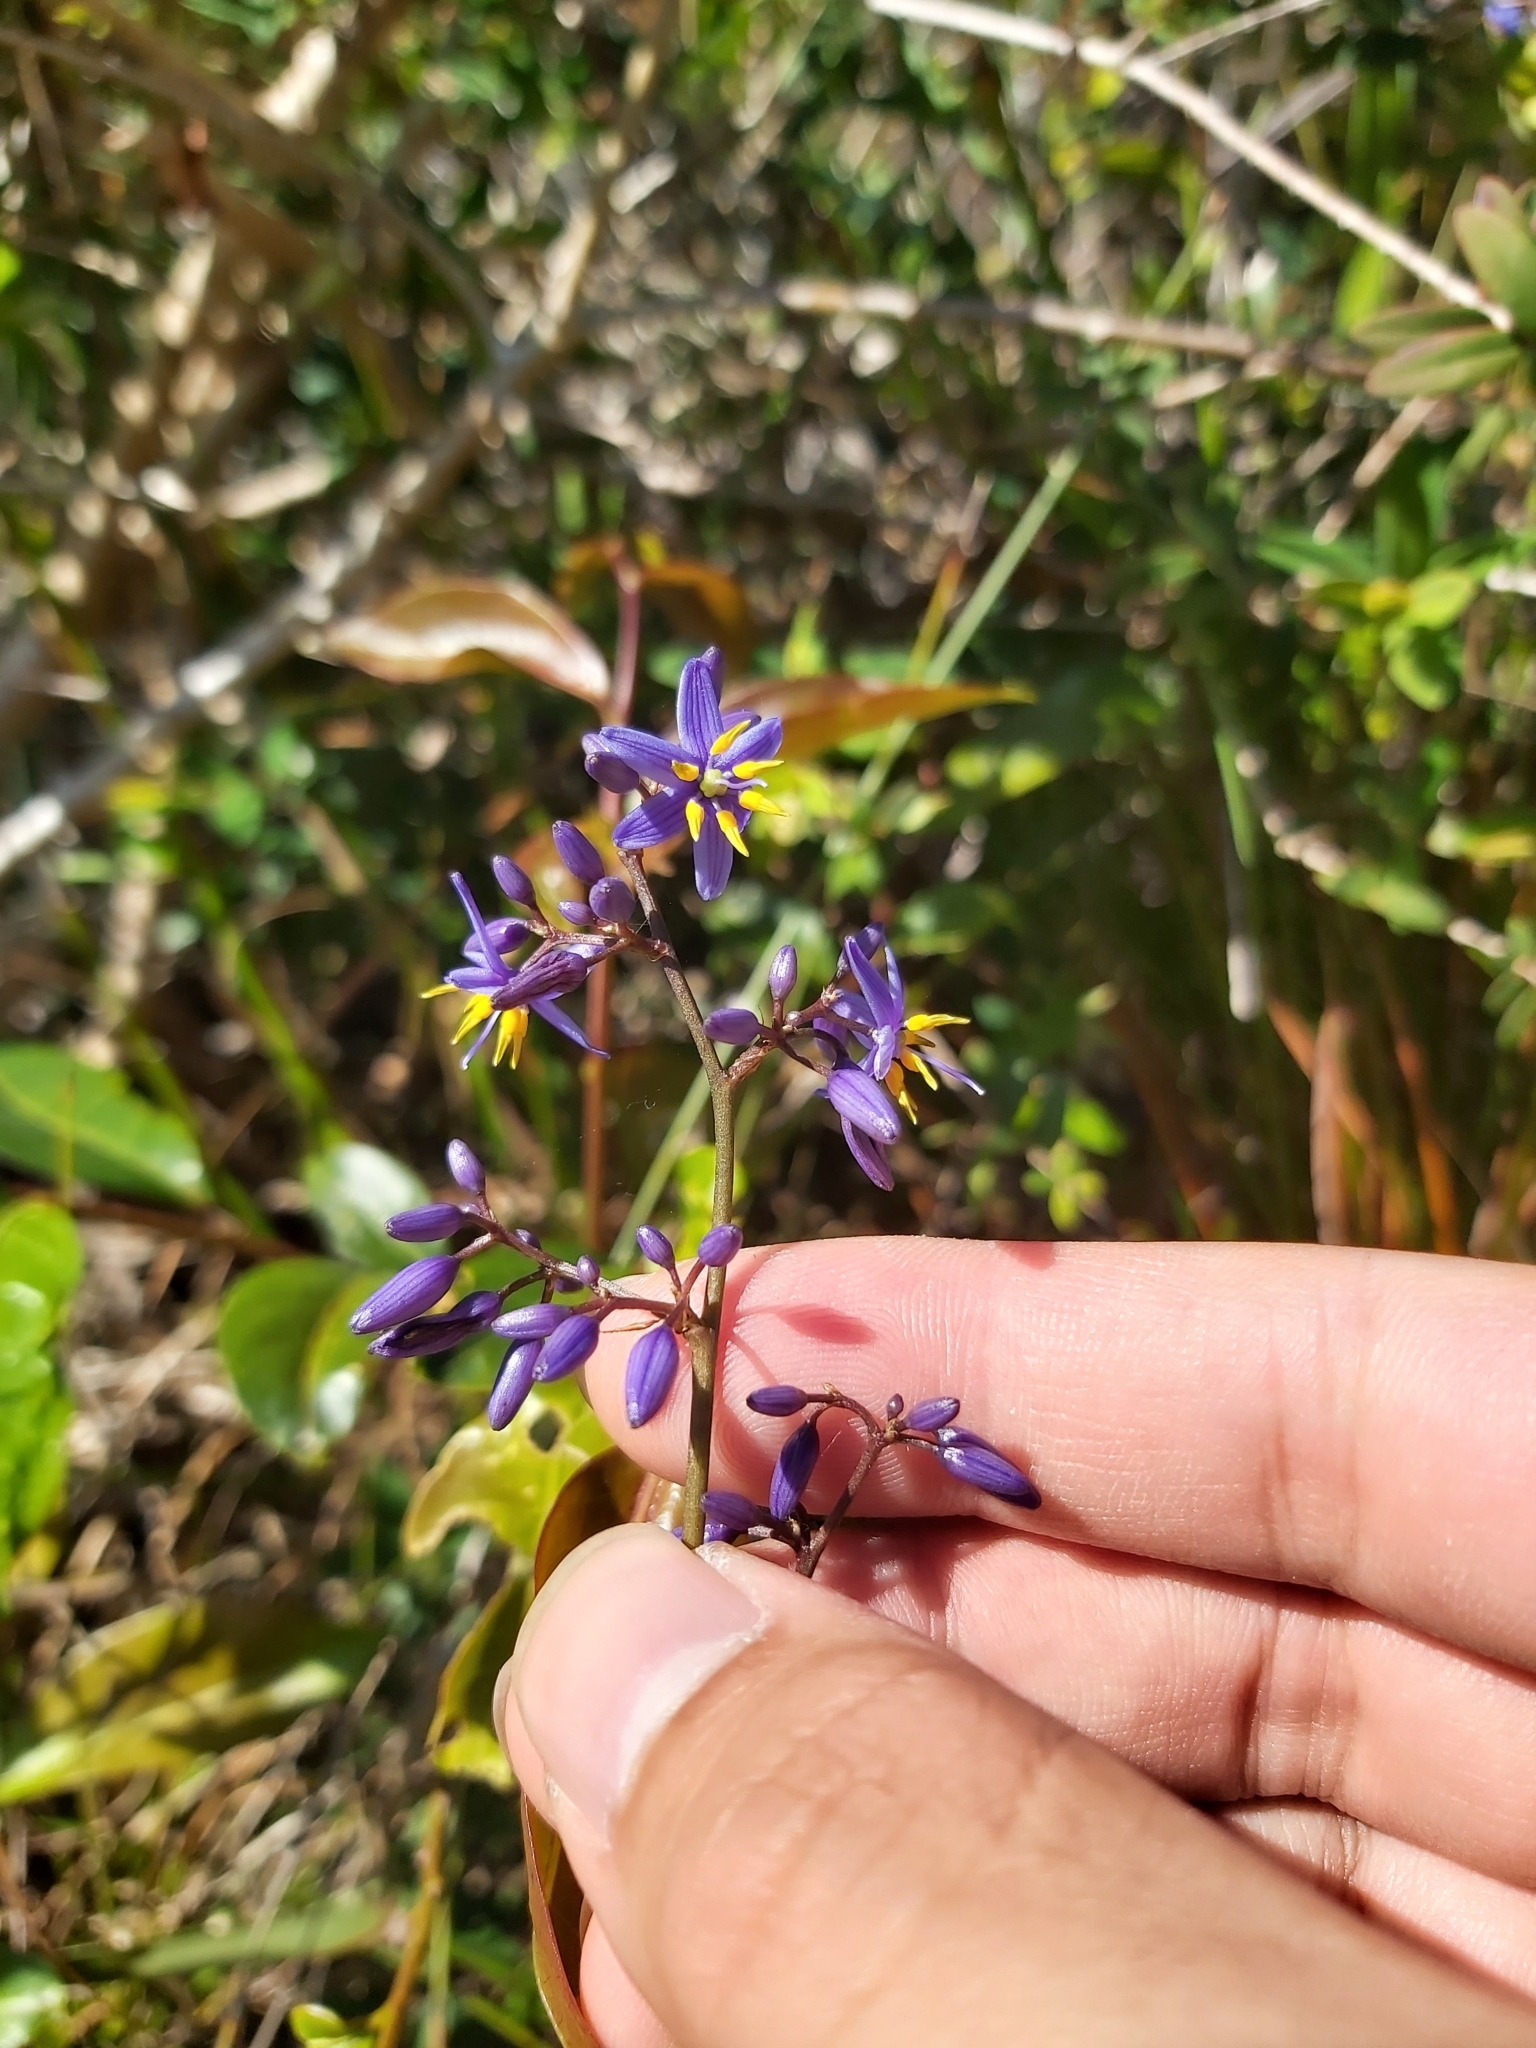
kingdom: Plantae
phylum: Tracheophyta
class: Liliopsida
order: Asparagales
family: Asphodelaceae
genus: Dianella
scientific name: Dianella caerulea
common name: Blue flax-lily
